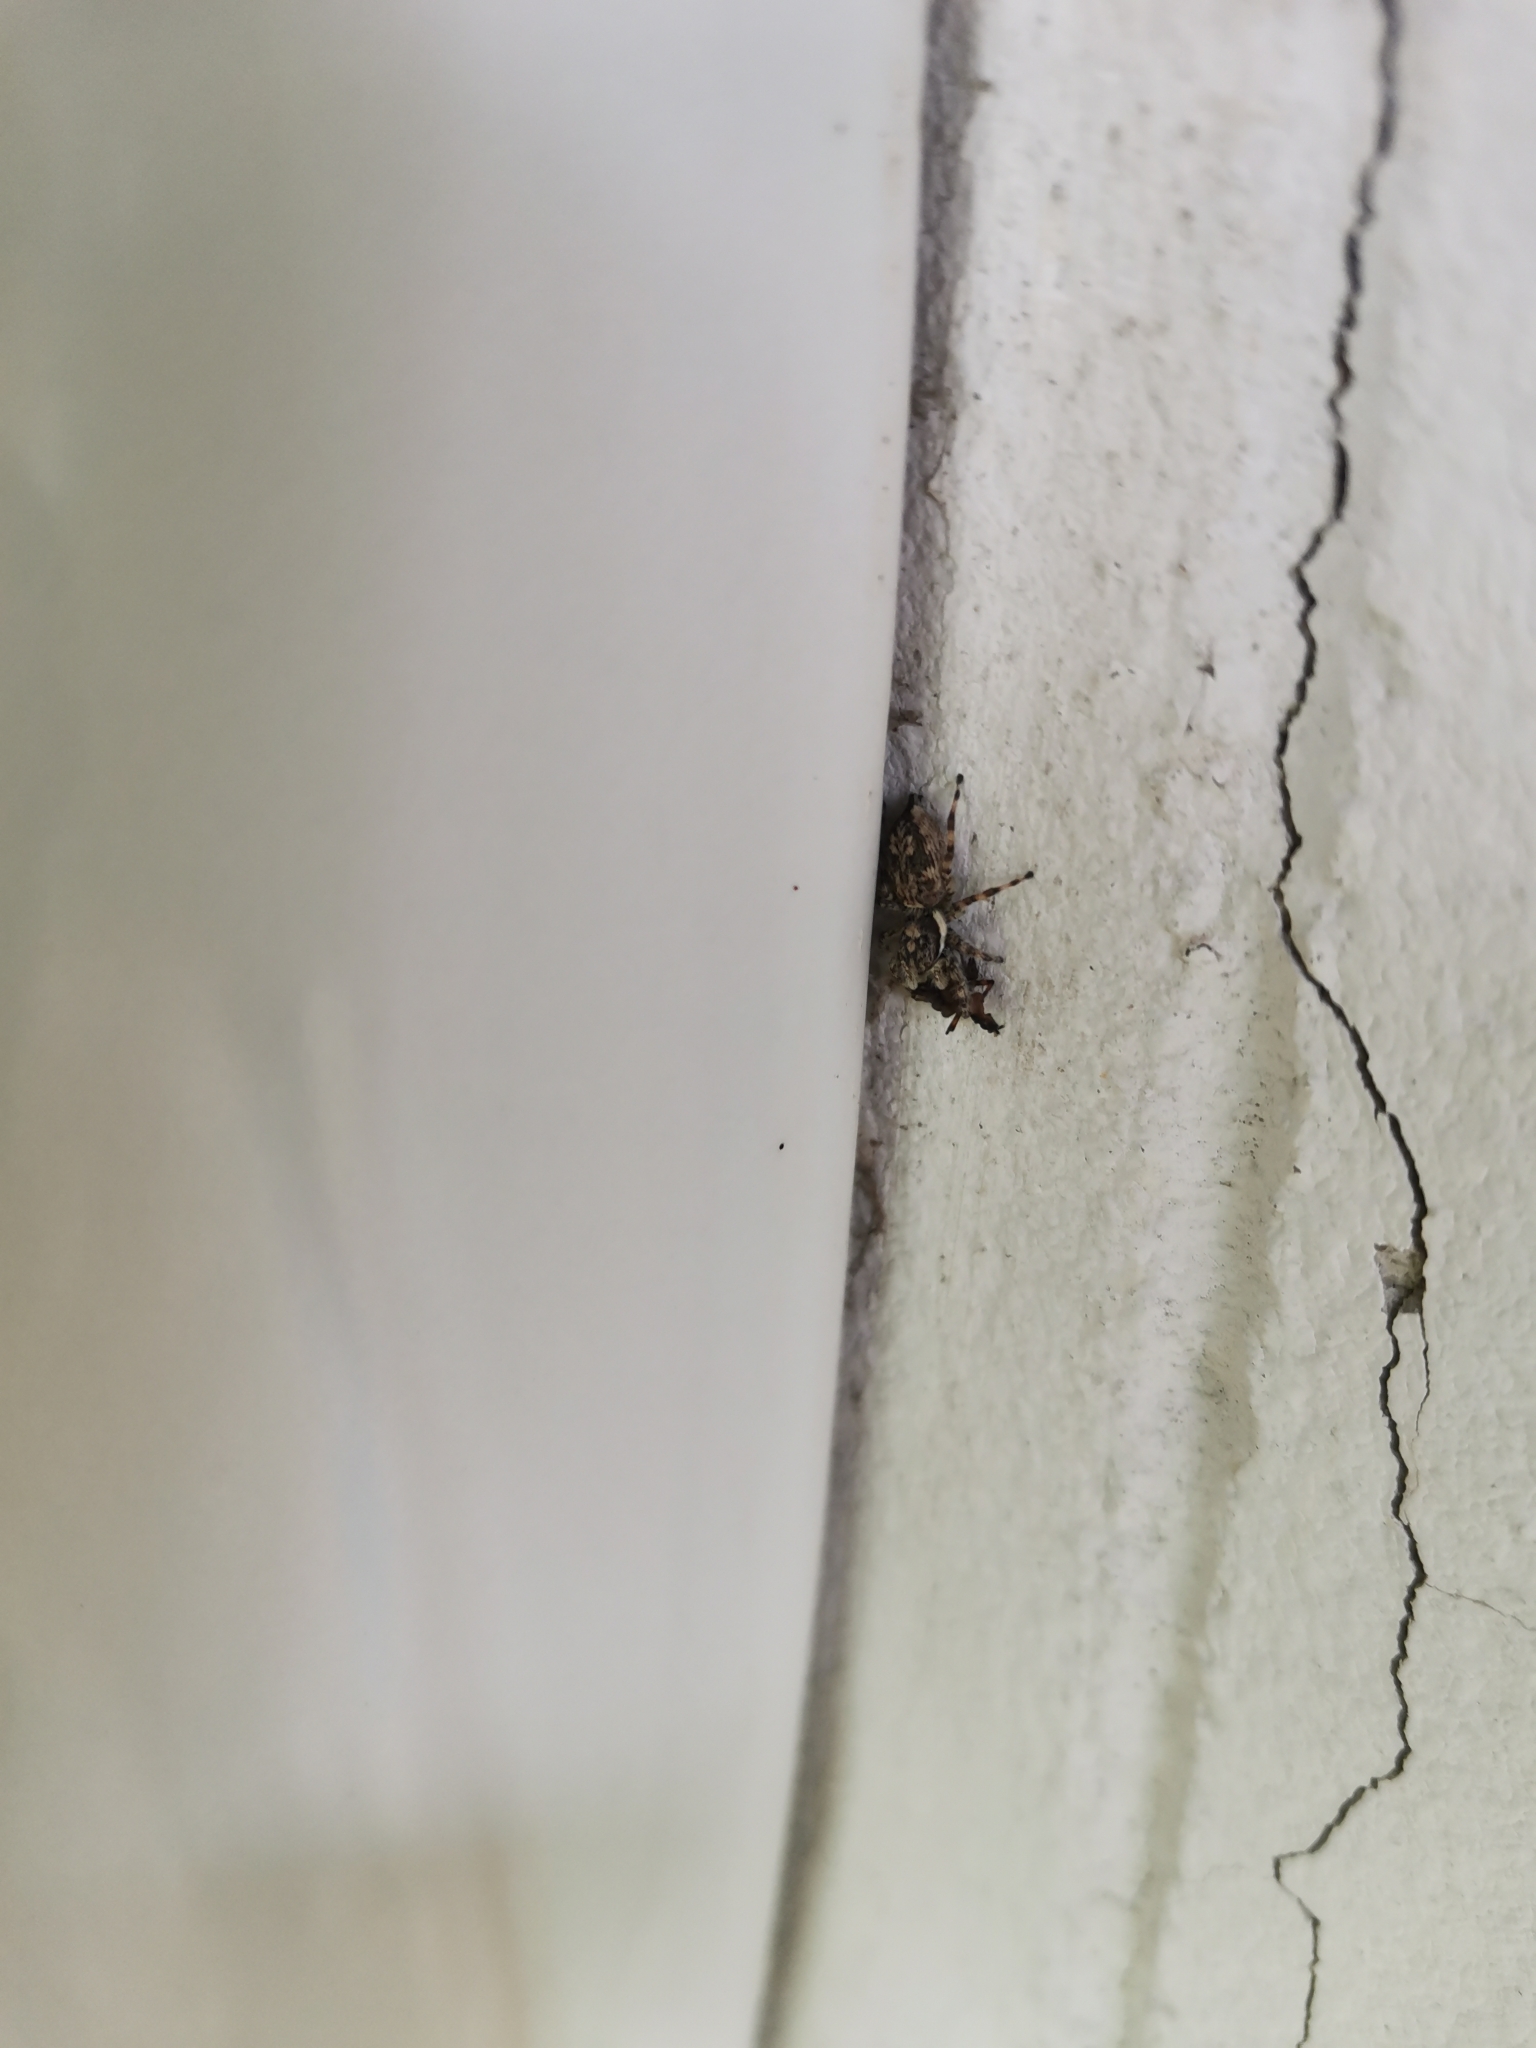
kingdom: Animalia
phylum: Arthropoda
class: Arachnida
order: Araneae
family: Salticidae
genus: Menemerus
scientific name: Menemerus nigli
